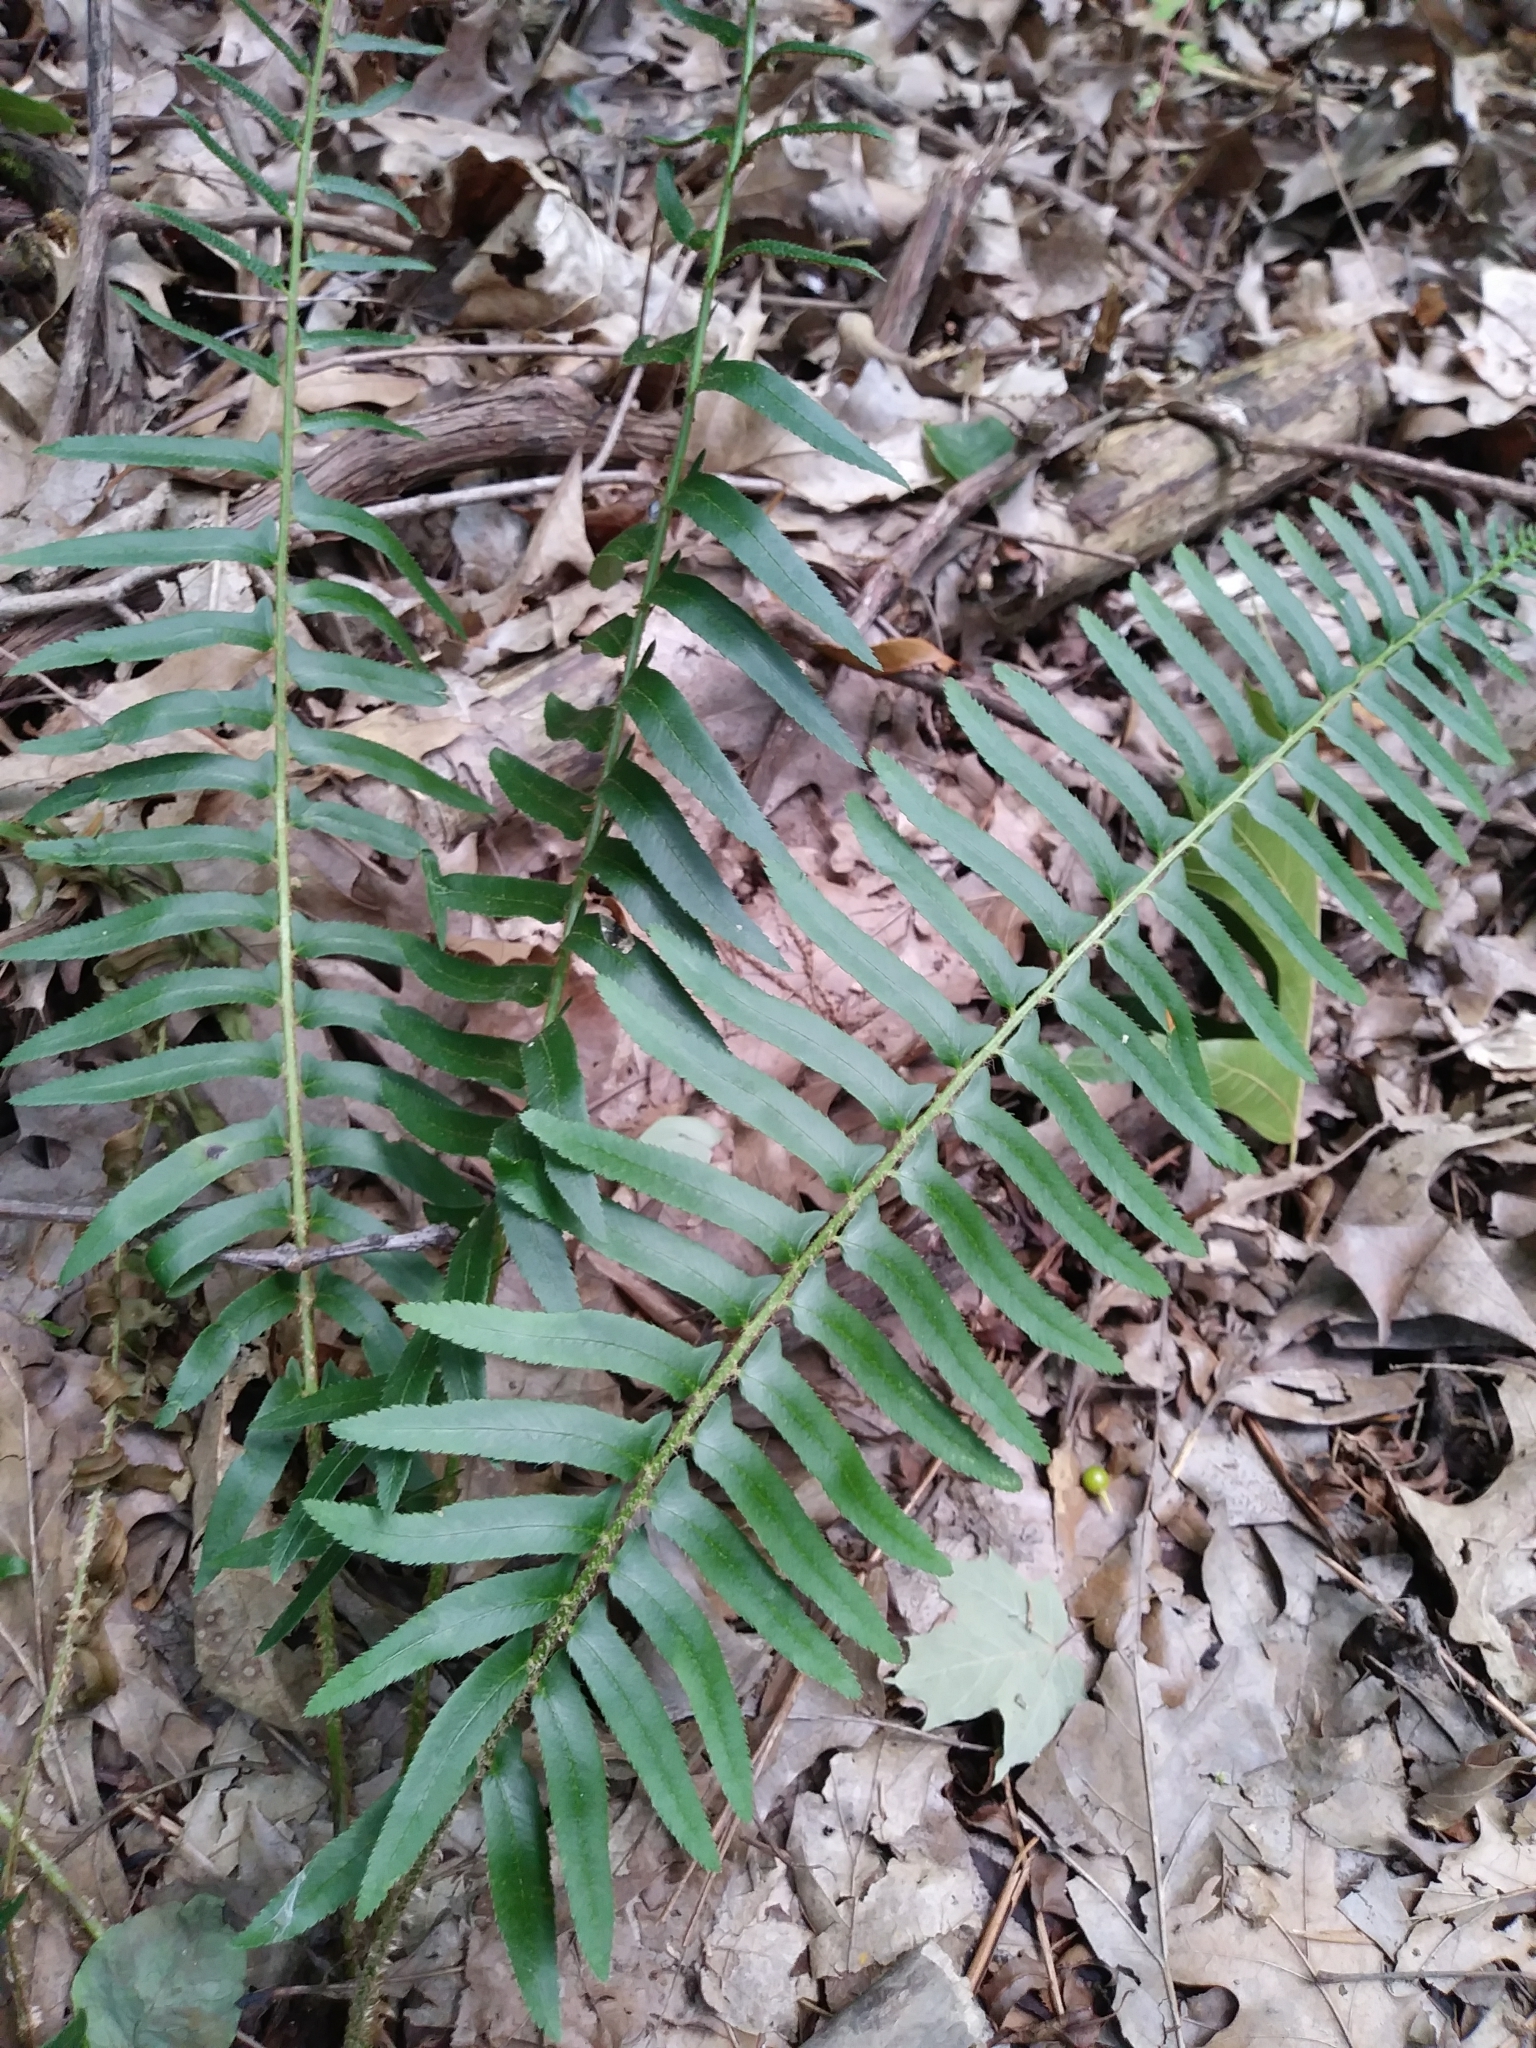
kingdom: Plantae
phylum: Tracheophyta
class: Polypodiopsida
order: Polypodiales
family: Dryopteridaceae
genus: Polystichum
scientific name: Polystichum acrostichoides
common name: Christmas fern
